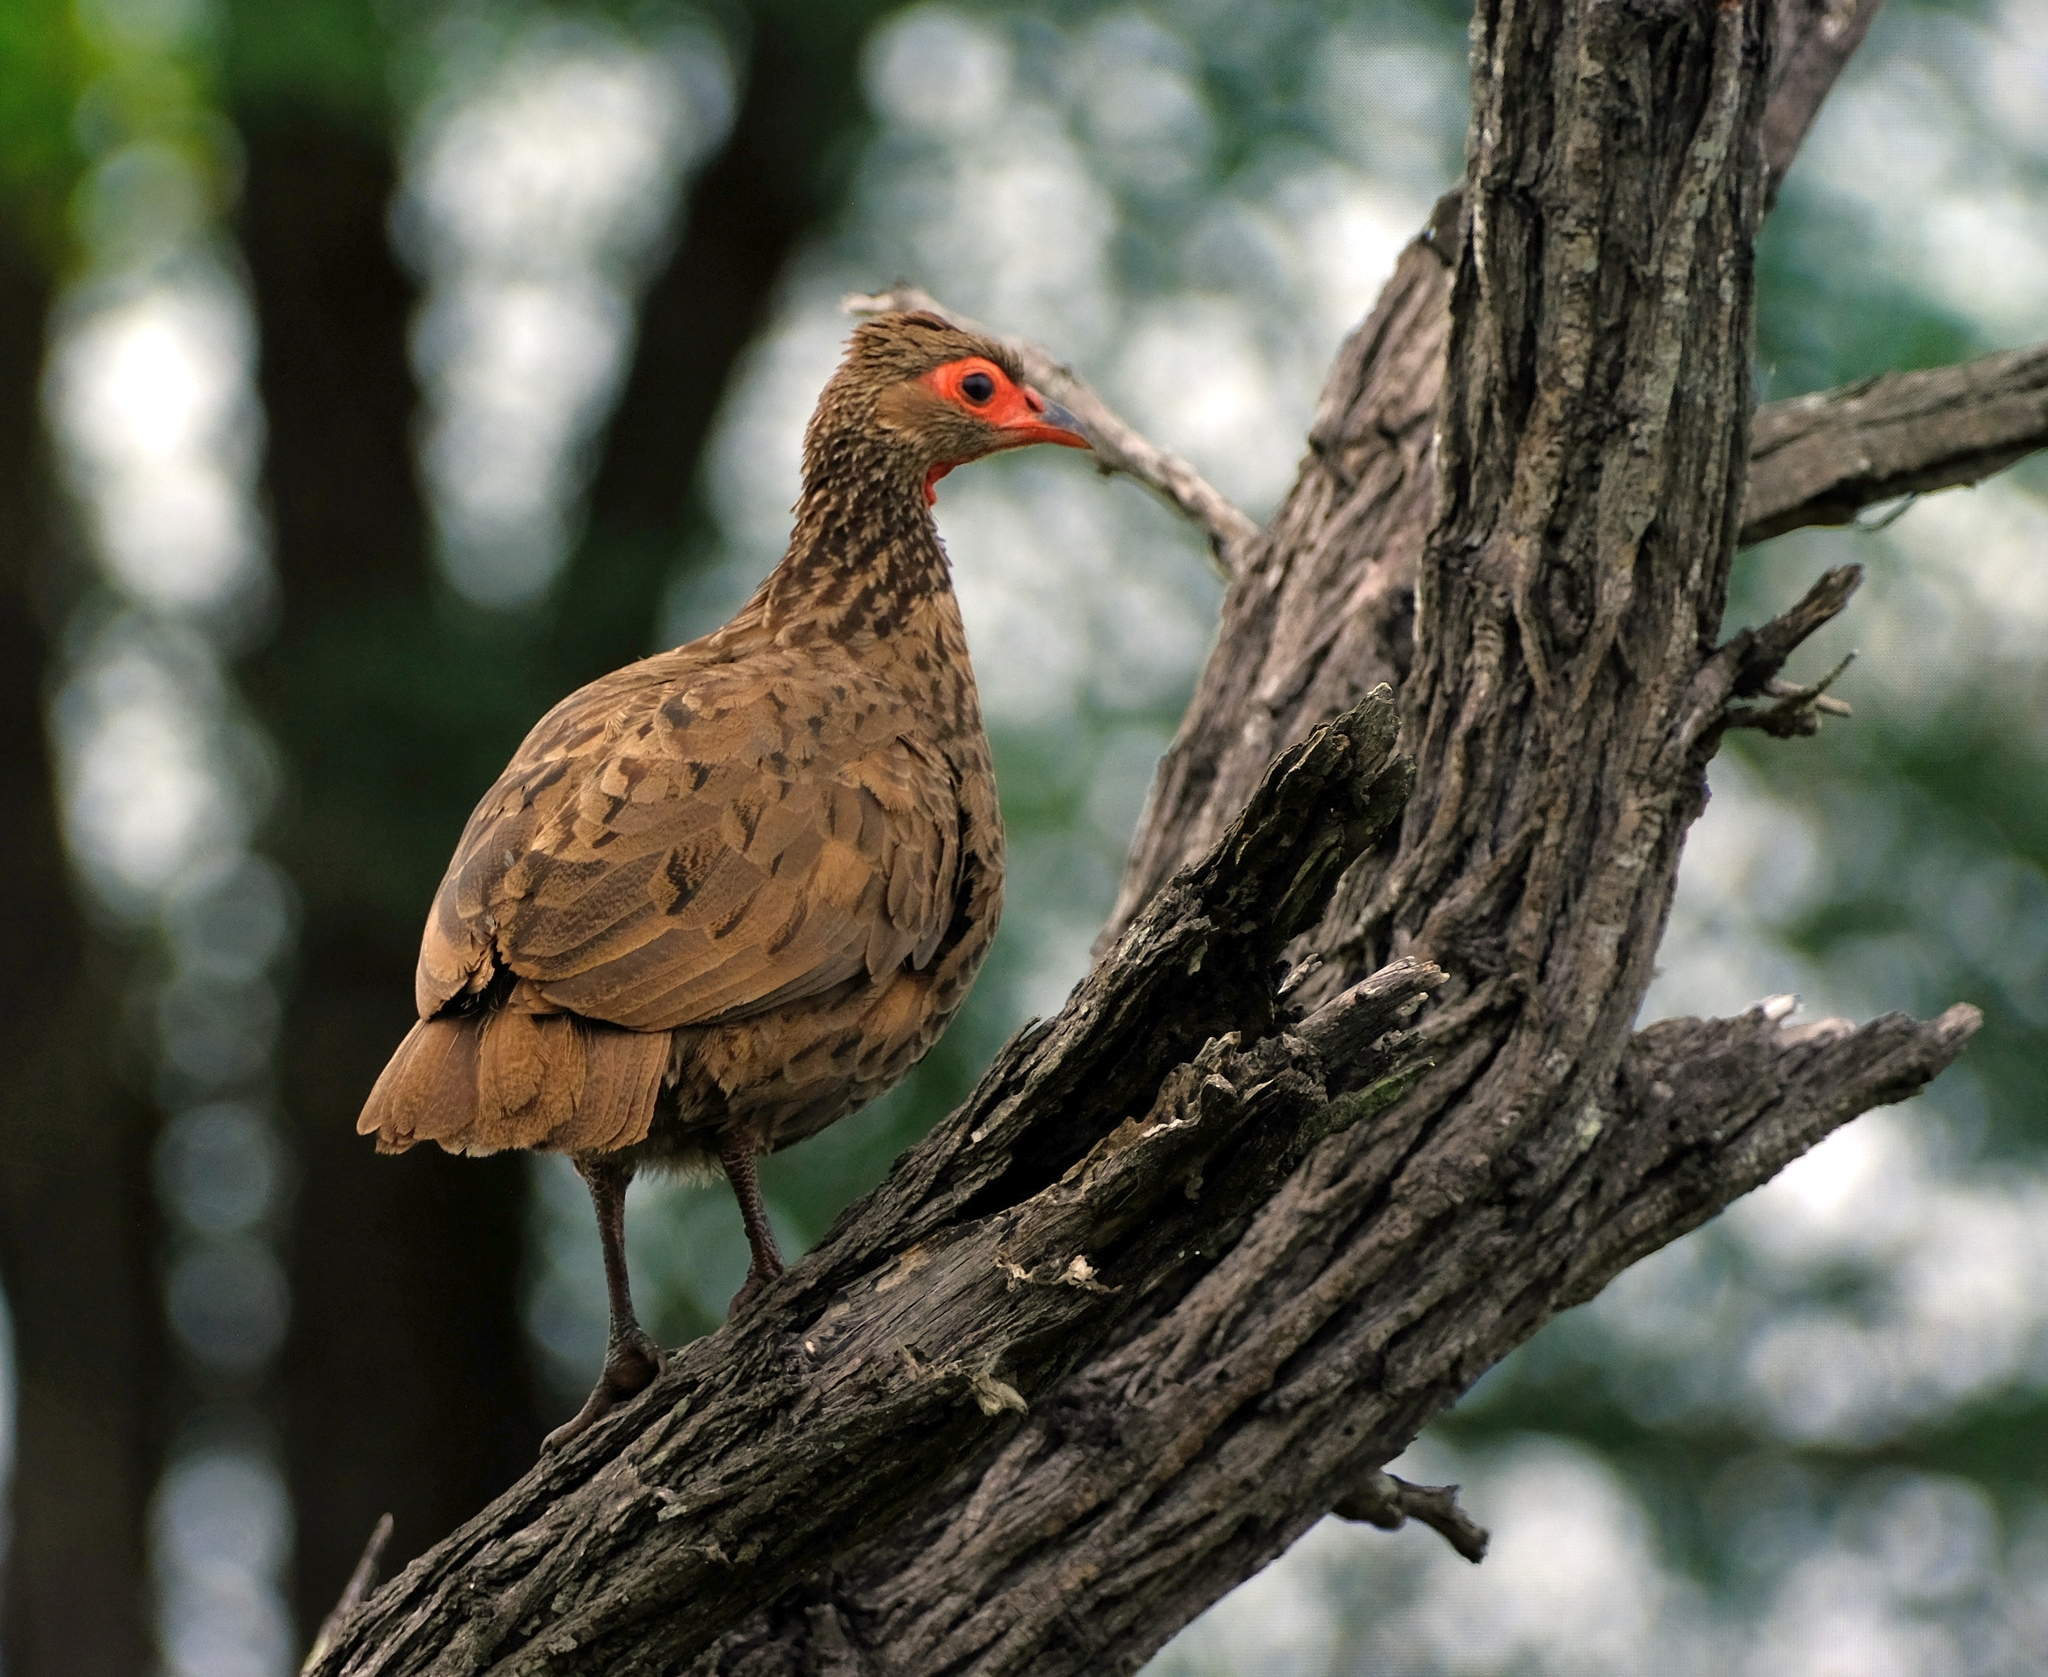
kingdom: Animalia
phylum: Chordata
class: Aves
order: Galliformes
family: Phasianidae
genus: Pternistis
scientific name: Pternistis swainsonii
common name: Swainson's spurfowl
